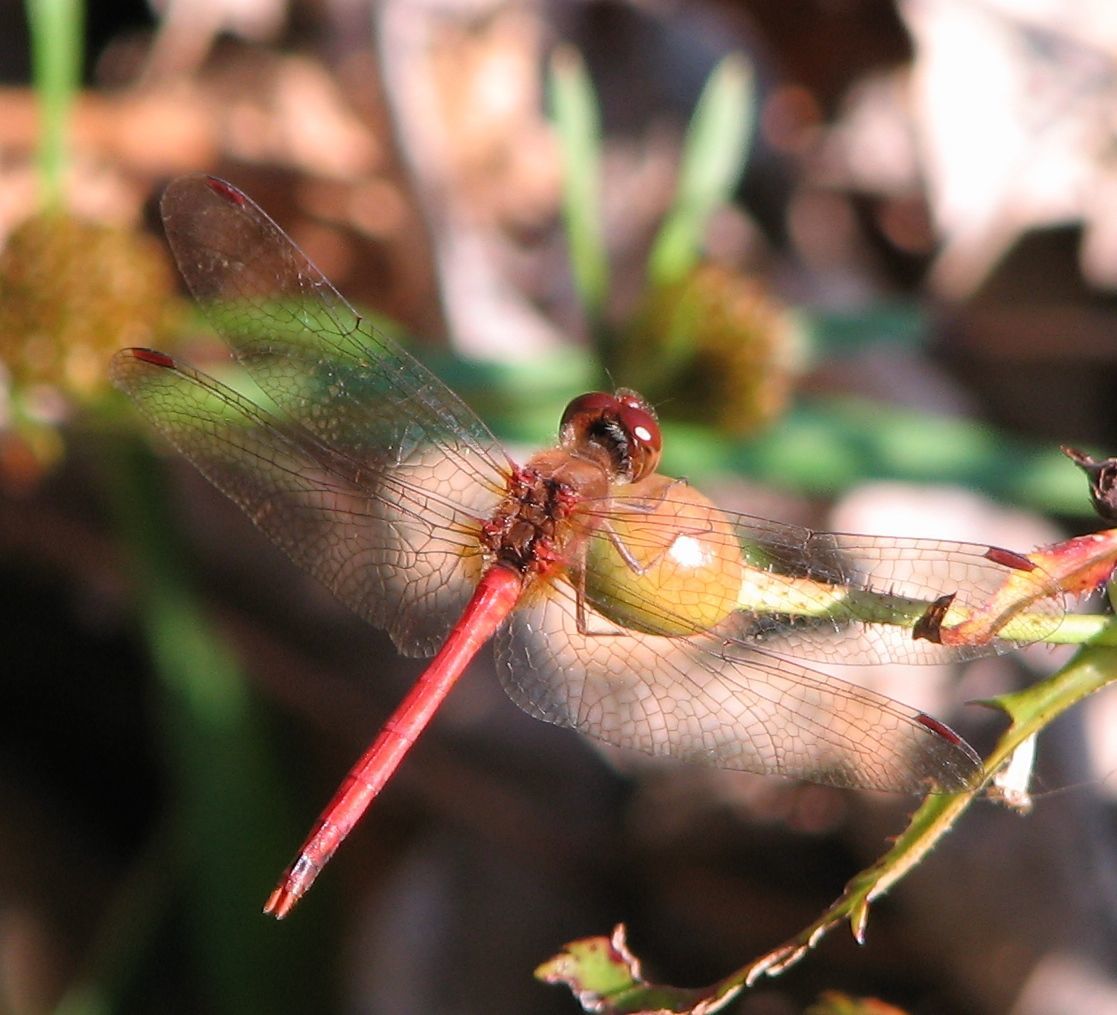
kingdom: Animalia
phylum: Arthropoda
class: Insecta
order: Odonata
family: Libellulidae
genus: Sympetrum
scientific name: Sympetrum vicinum
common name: Autumn meadowhawk
